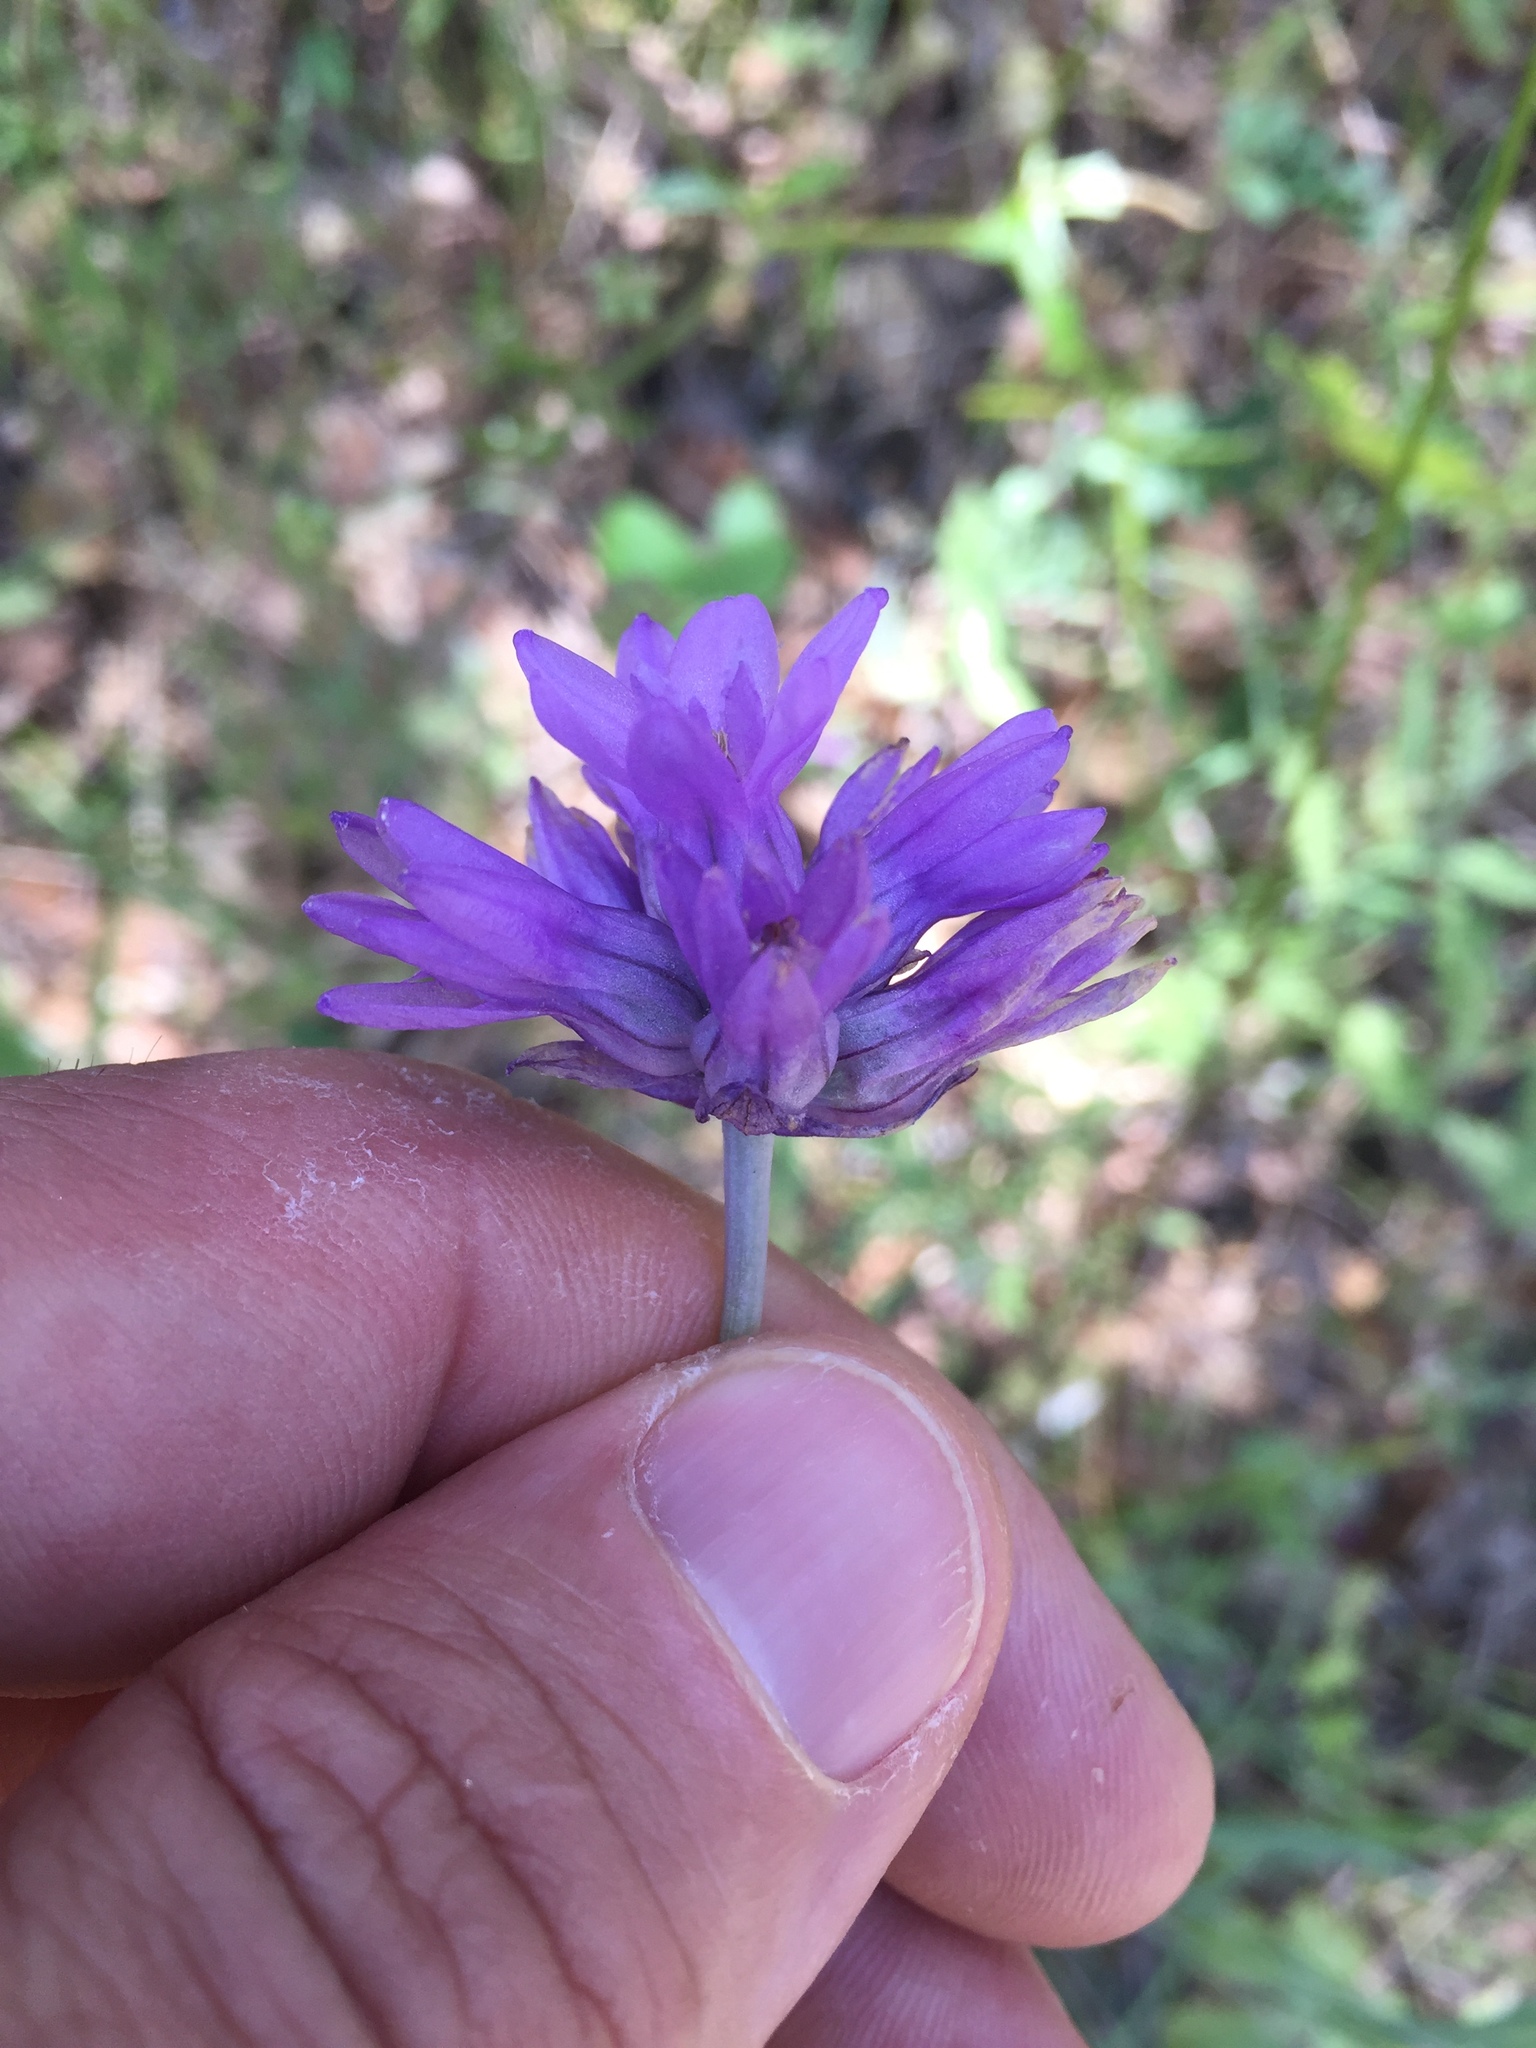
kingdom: Plantae
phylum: Tracheophyta
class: Liliopsida
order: Asparagales
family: Asparagaceae
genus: Dichelostemma
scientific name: Dichelostemma congestum
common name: Fork-tooth ookow
